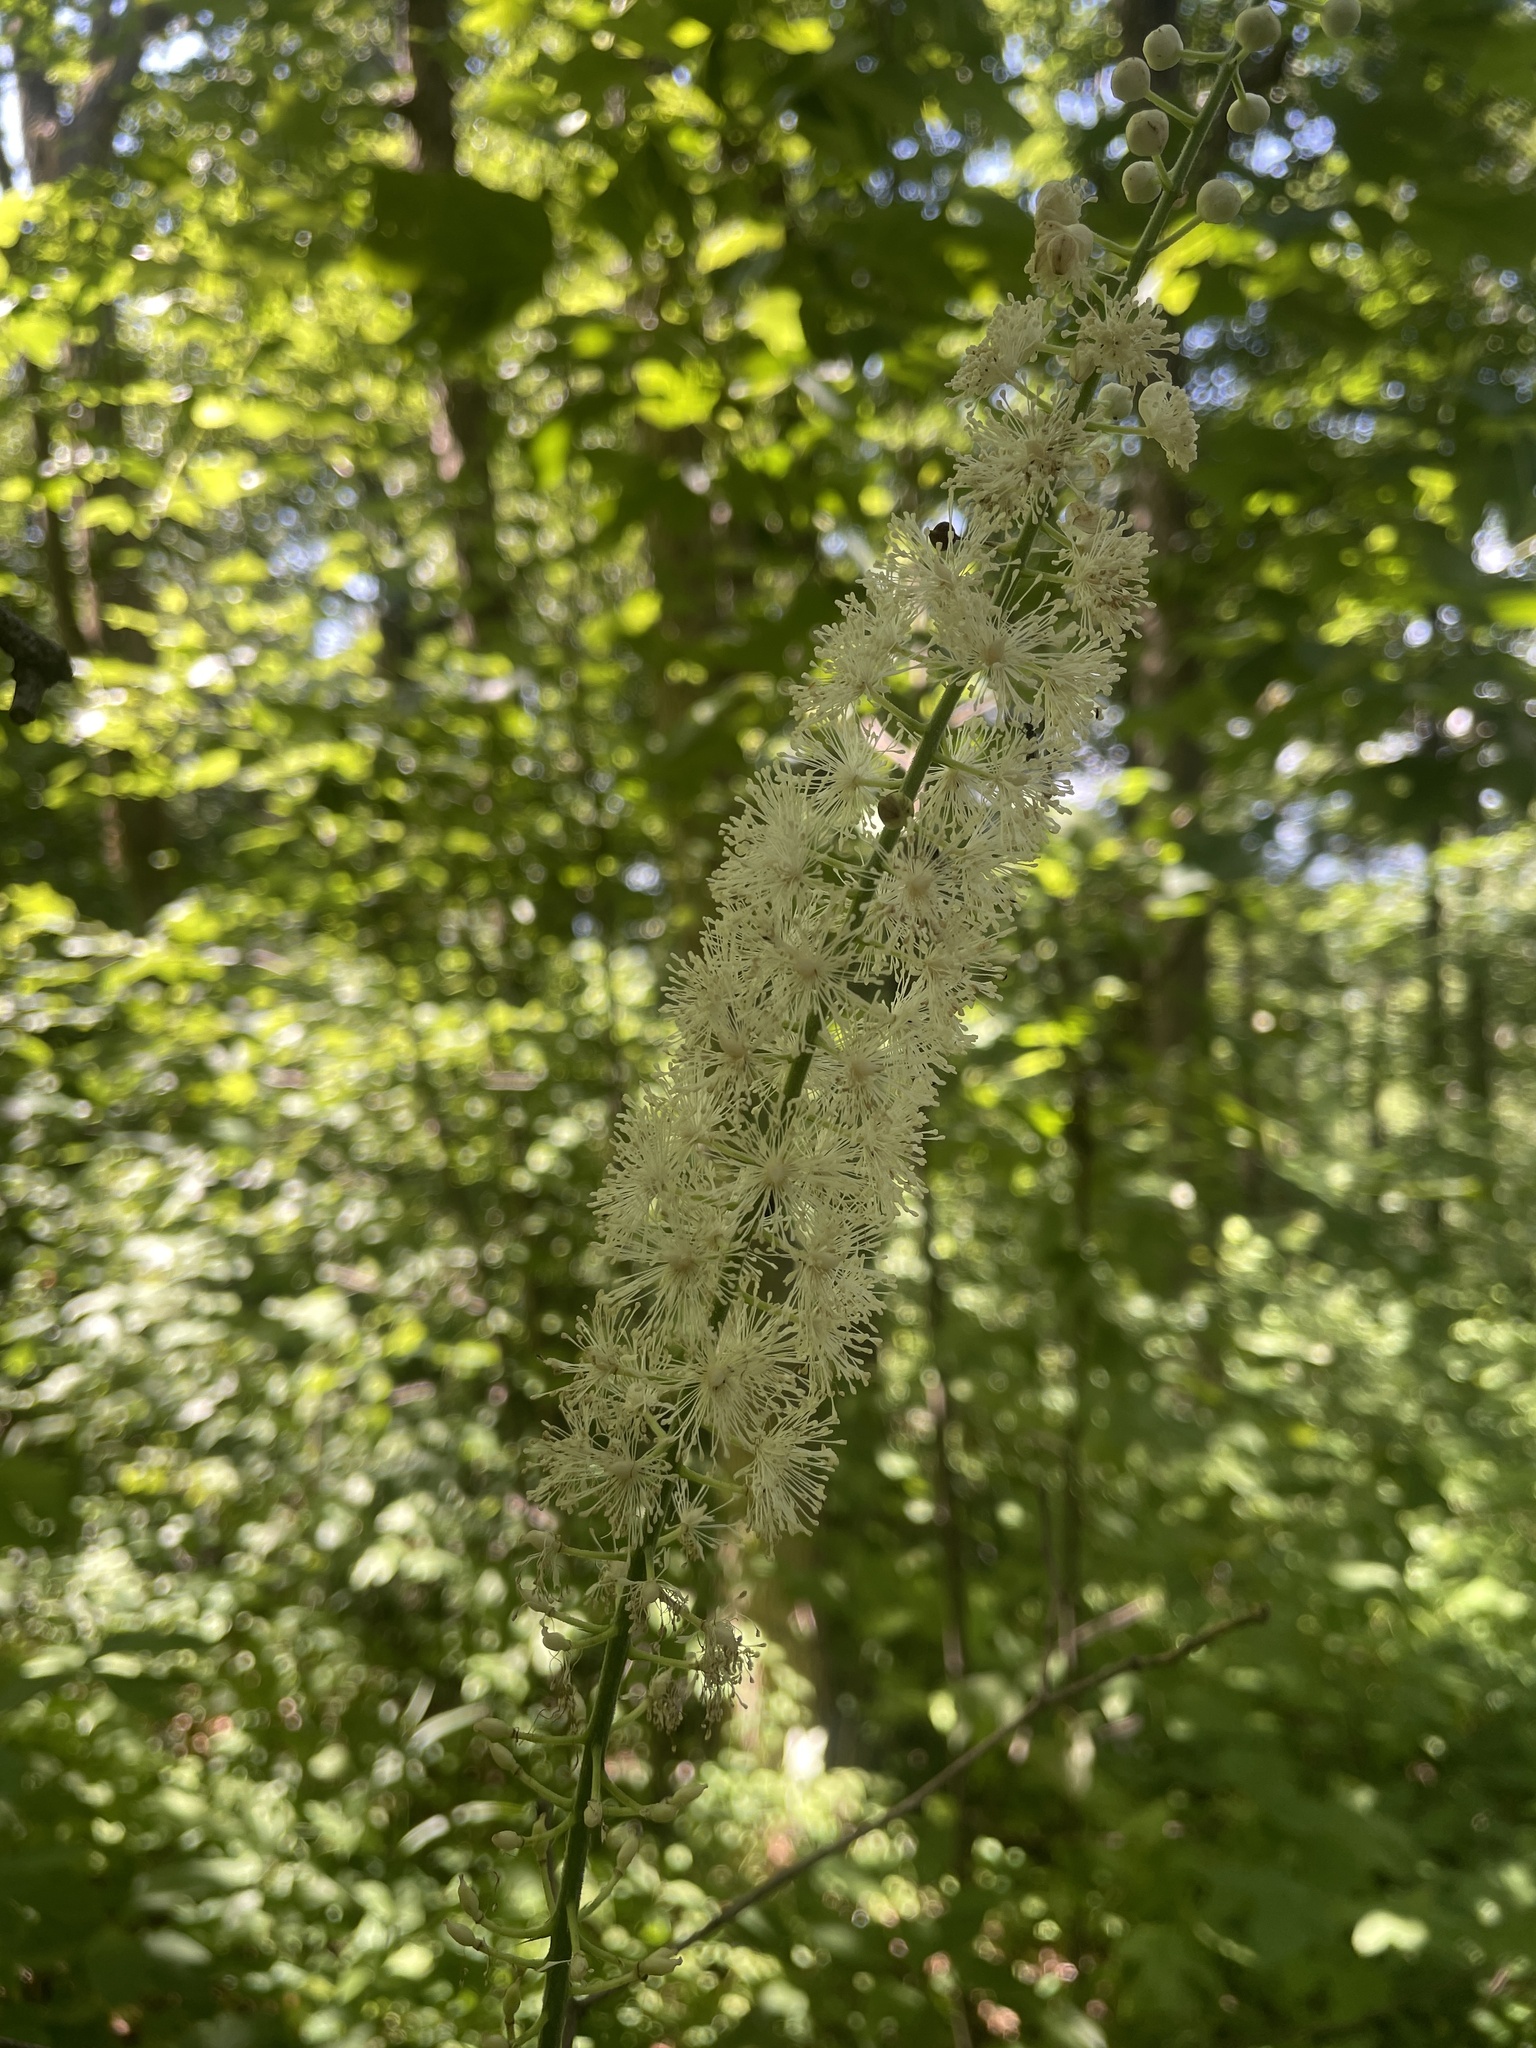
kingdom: Plantae
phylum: Tracheophyta
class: Magnoliopsida
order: Ranunculales
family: Ranunculaceae
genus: Actaea
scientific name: Actaea racemosa
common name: Black cohosh
